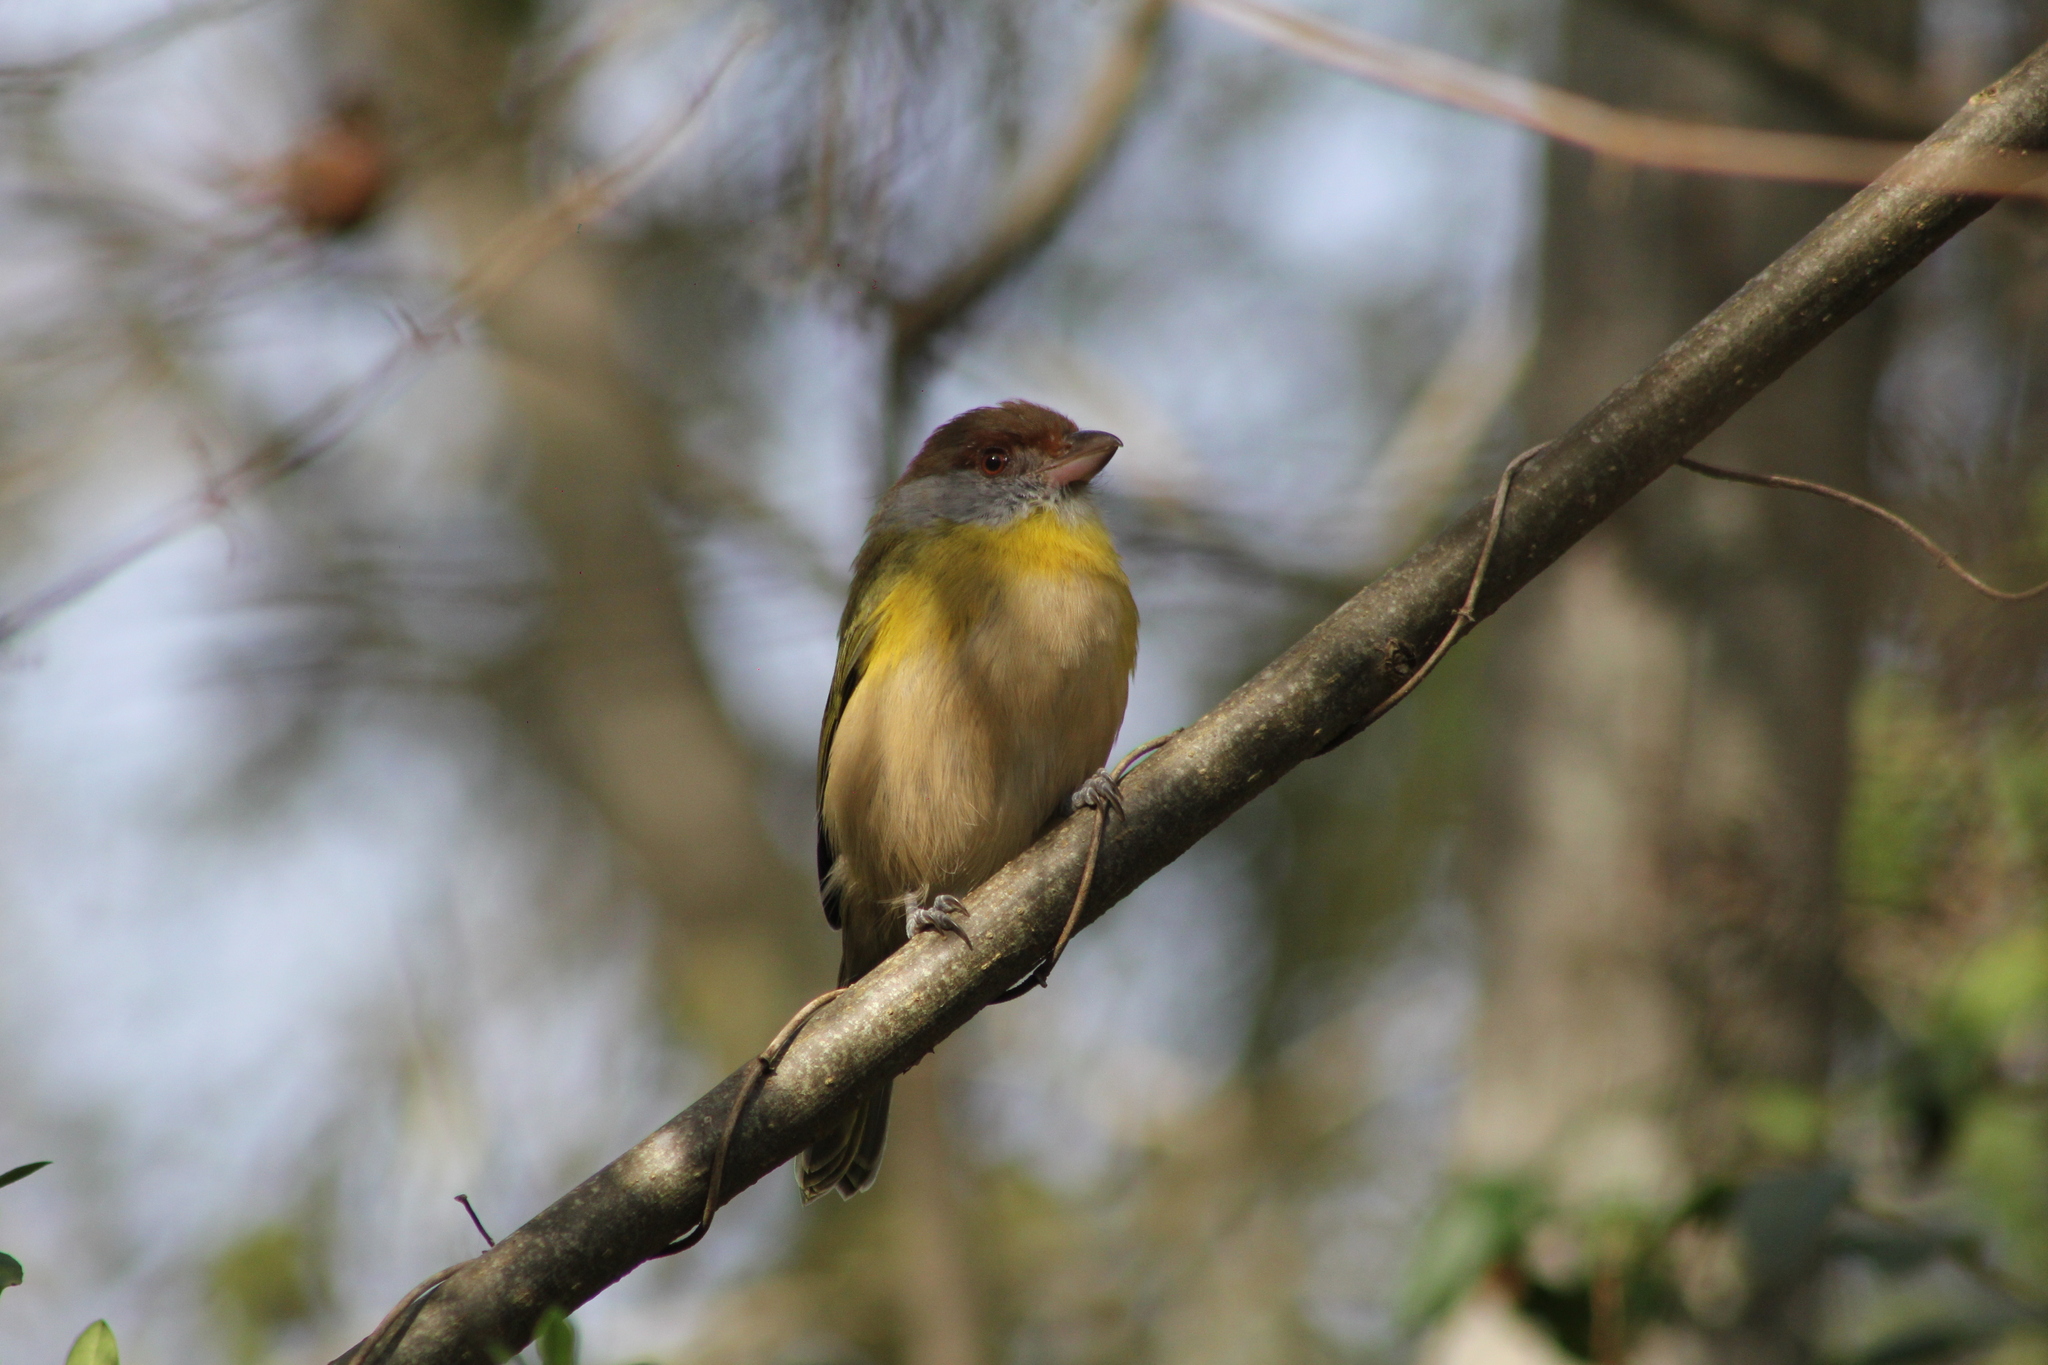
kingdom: Animalia
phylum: Chordata
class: Aves
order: Passeriformes
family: Vireonidae
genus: Cyclarhis
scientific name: Cyclarhis gujanensis
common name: Rufous-browed peppershrike
